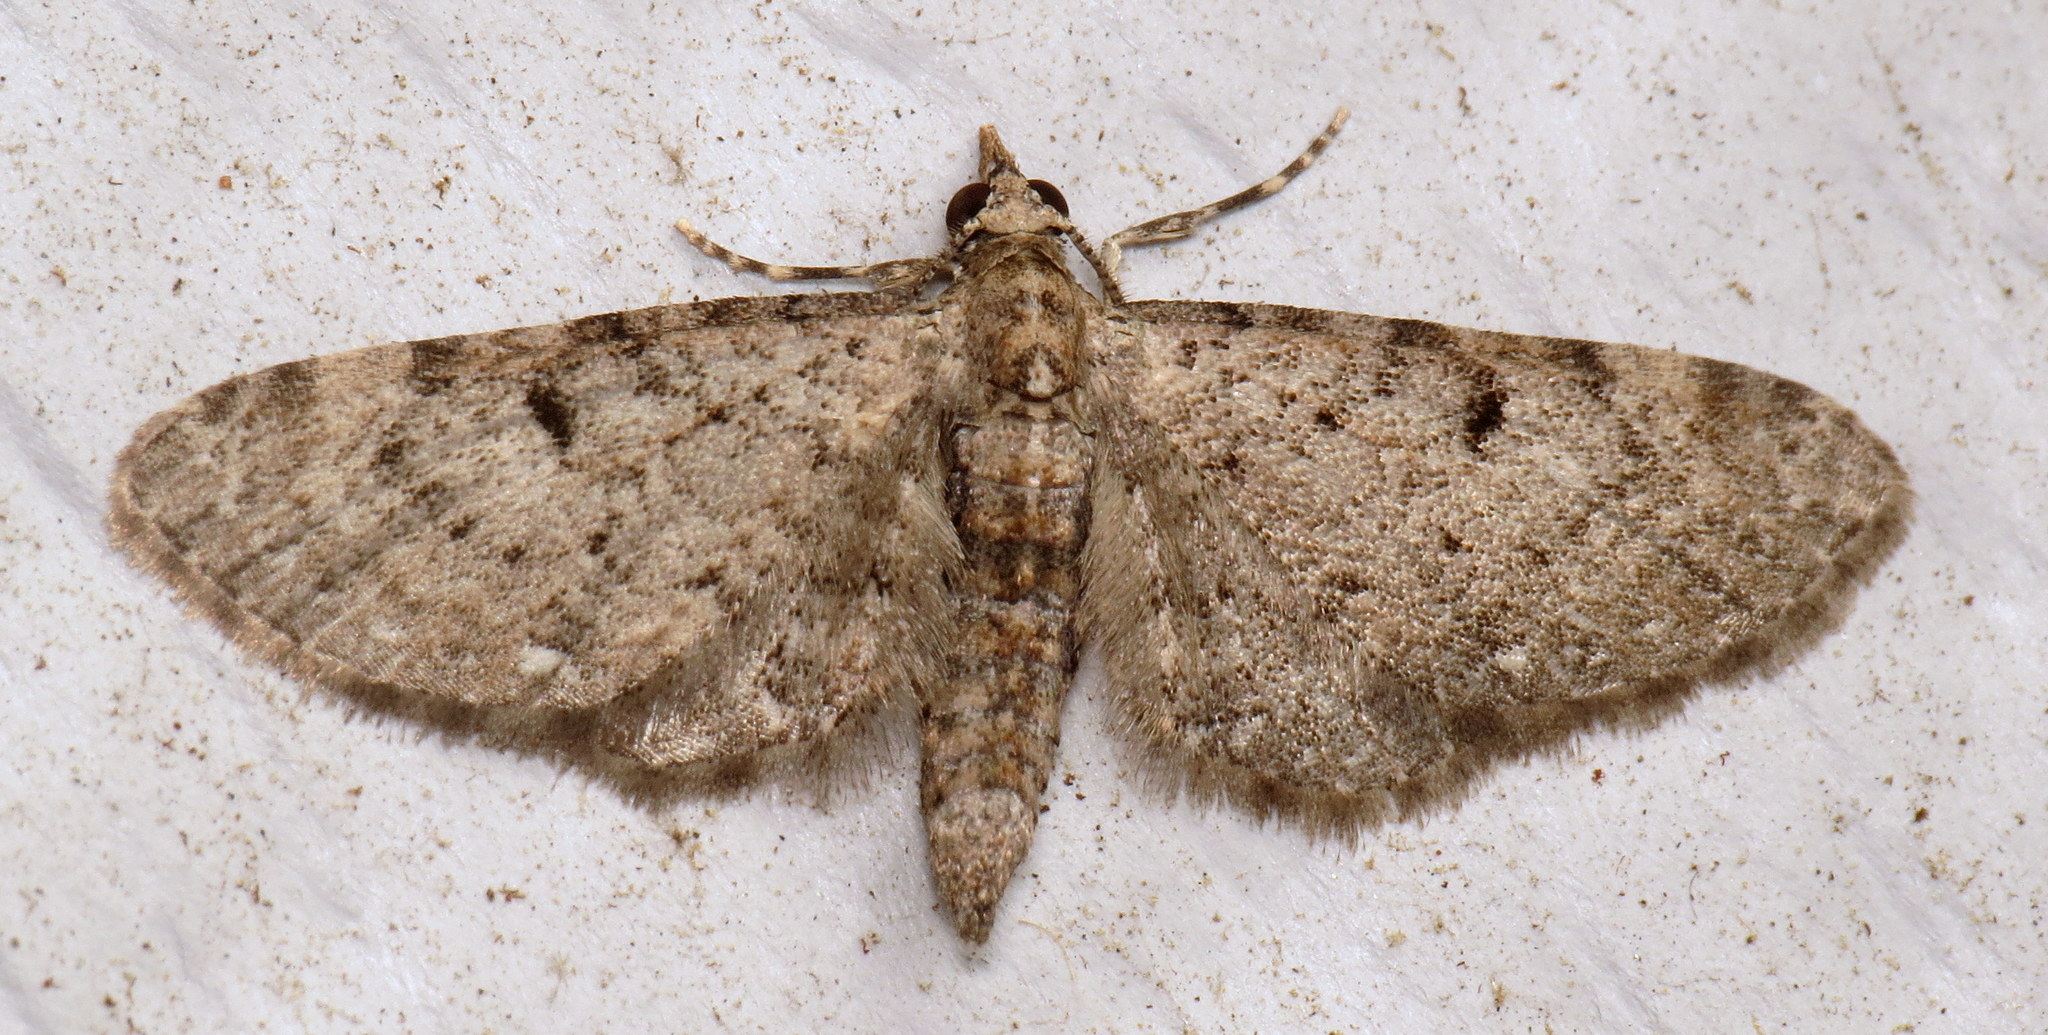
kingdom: Animalia
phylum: Arthropoda
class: Insecta
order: Lepidoptera
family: Geometridae
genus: Eupithecia
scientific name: Eupithecia
